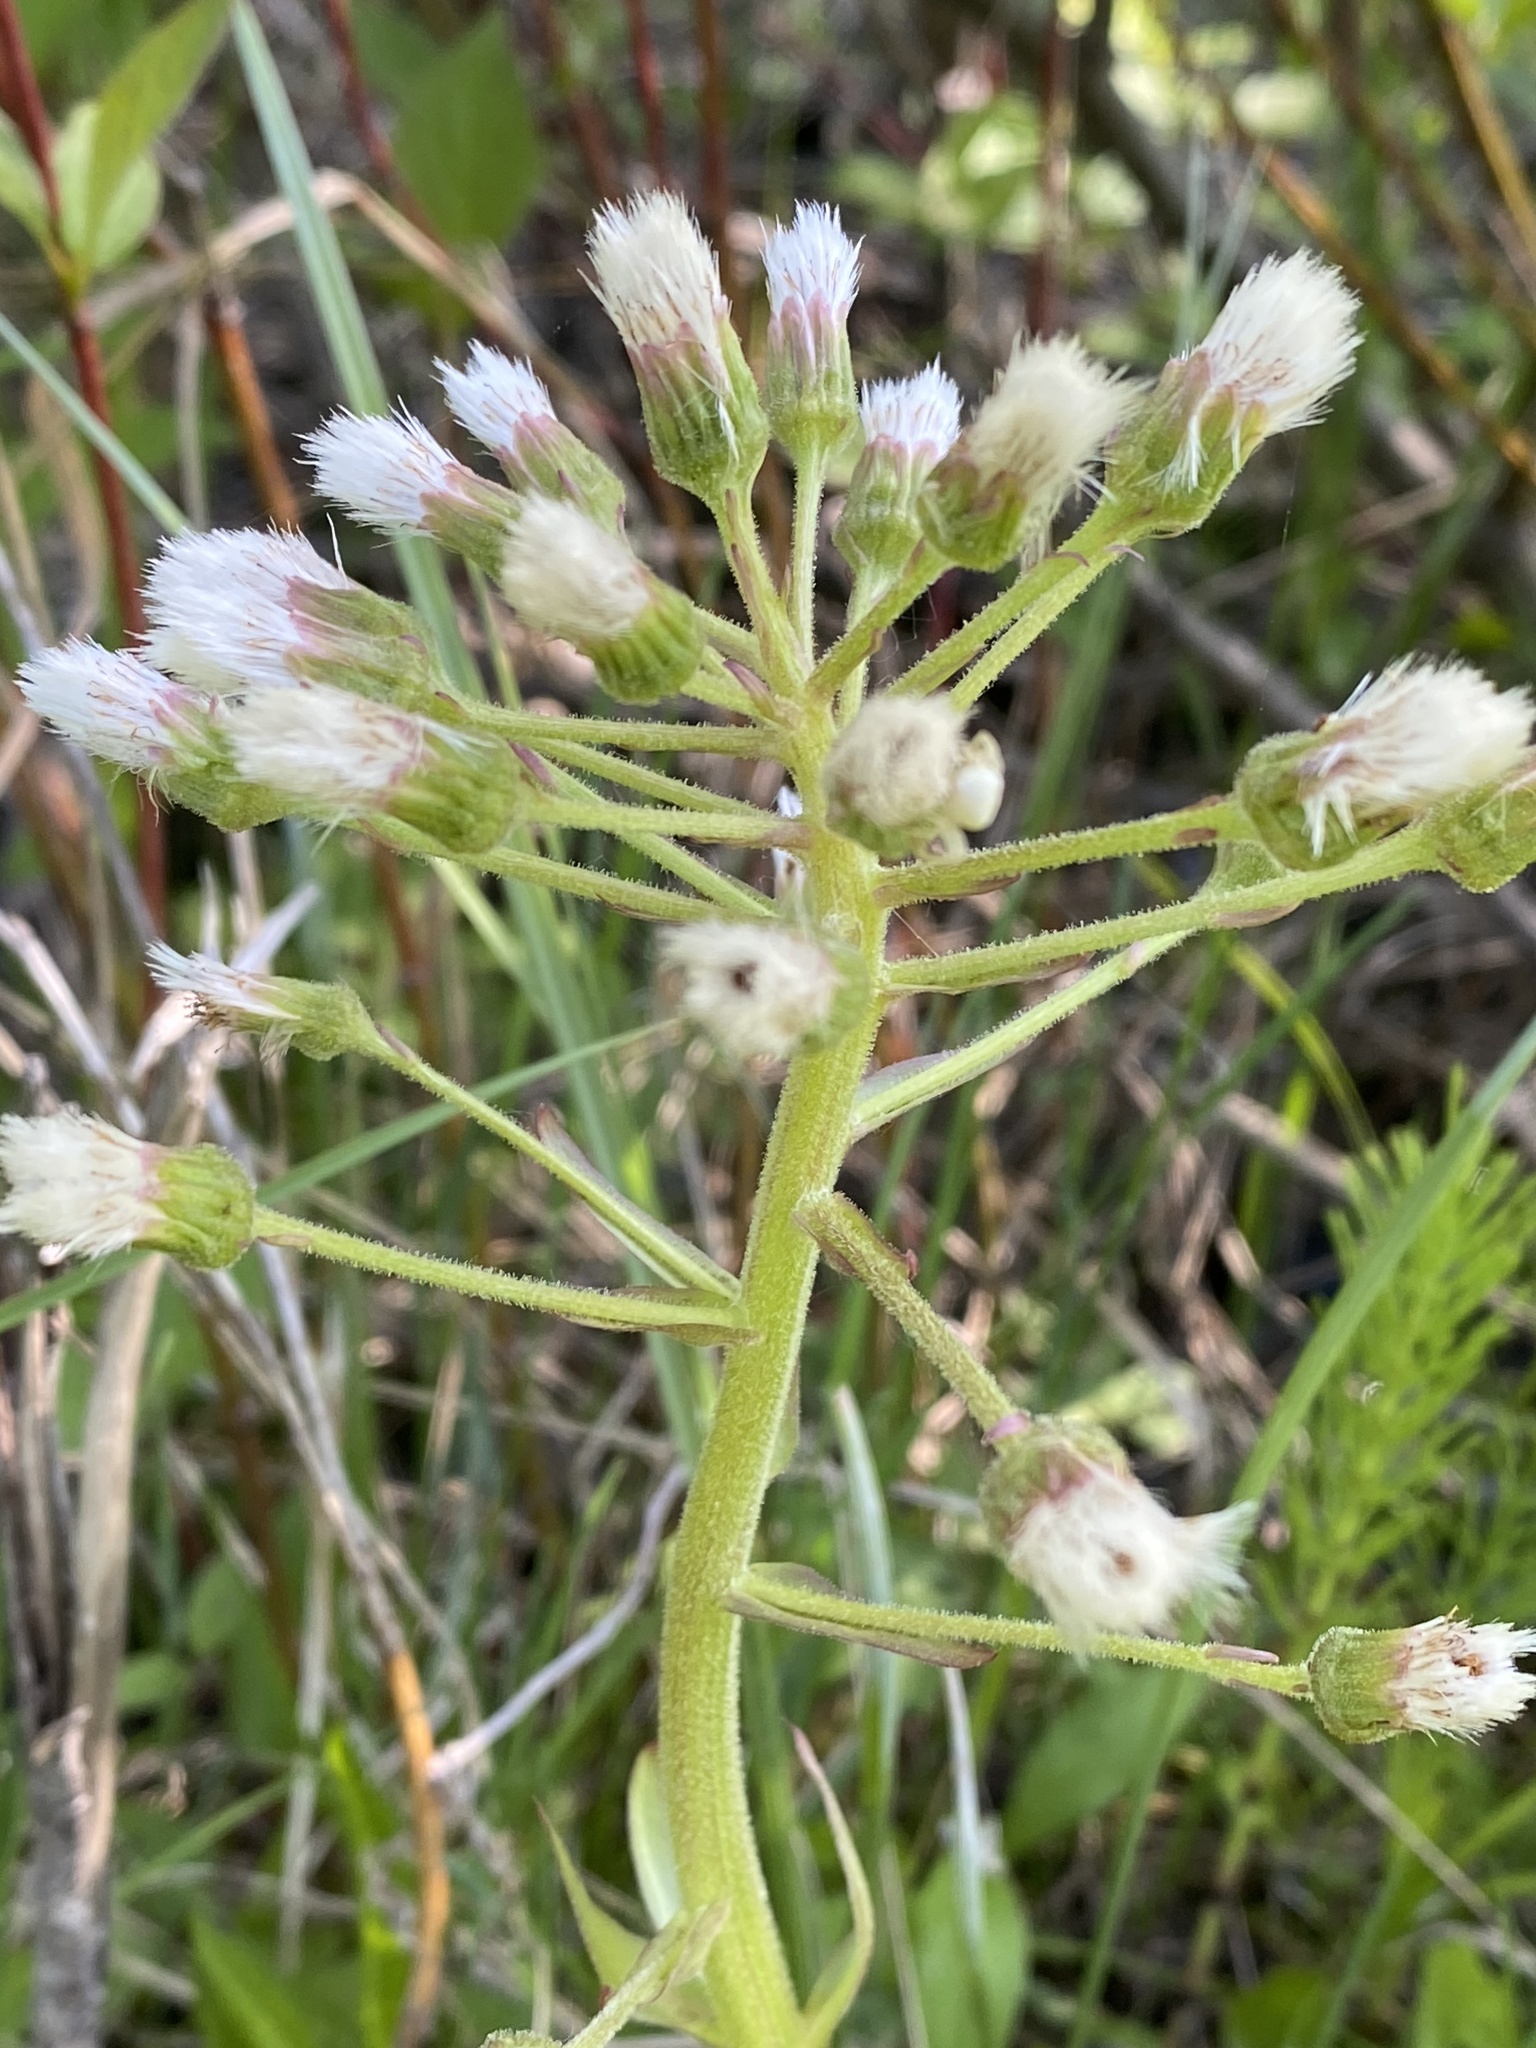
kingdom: Plantae
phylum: Tracheophyta
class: Magnoliopsida
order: Asterales
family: Asteraceae
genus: Petasites
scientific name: Petasites frigidus
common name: Arctic butterbur
